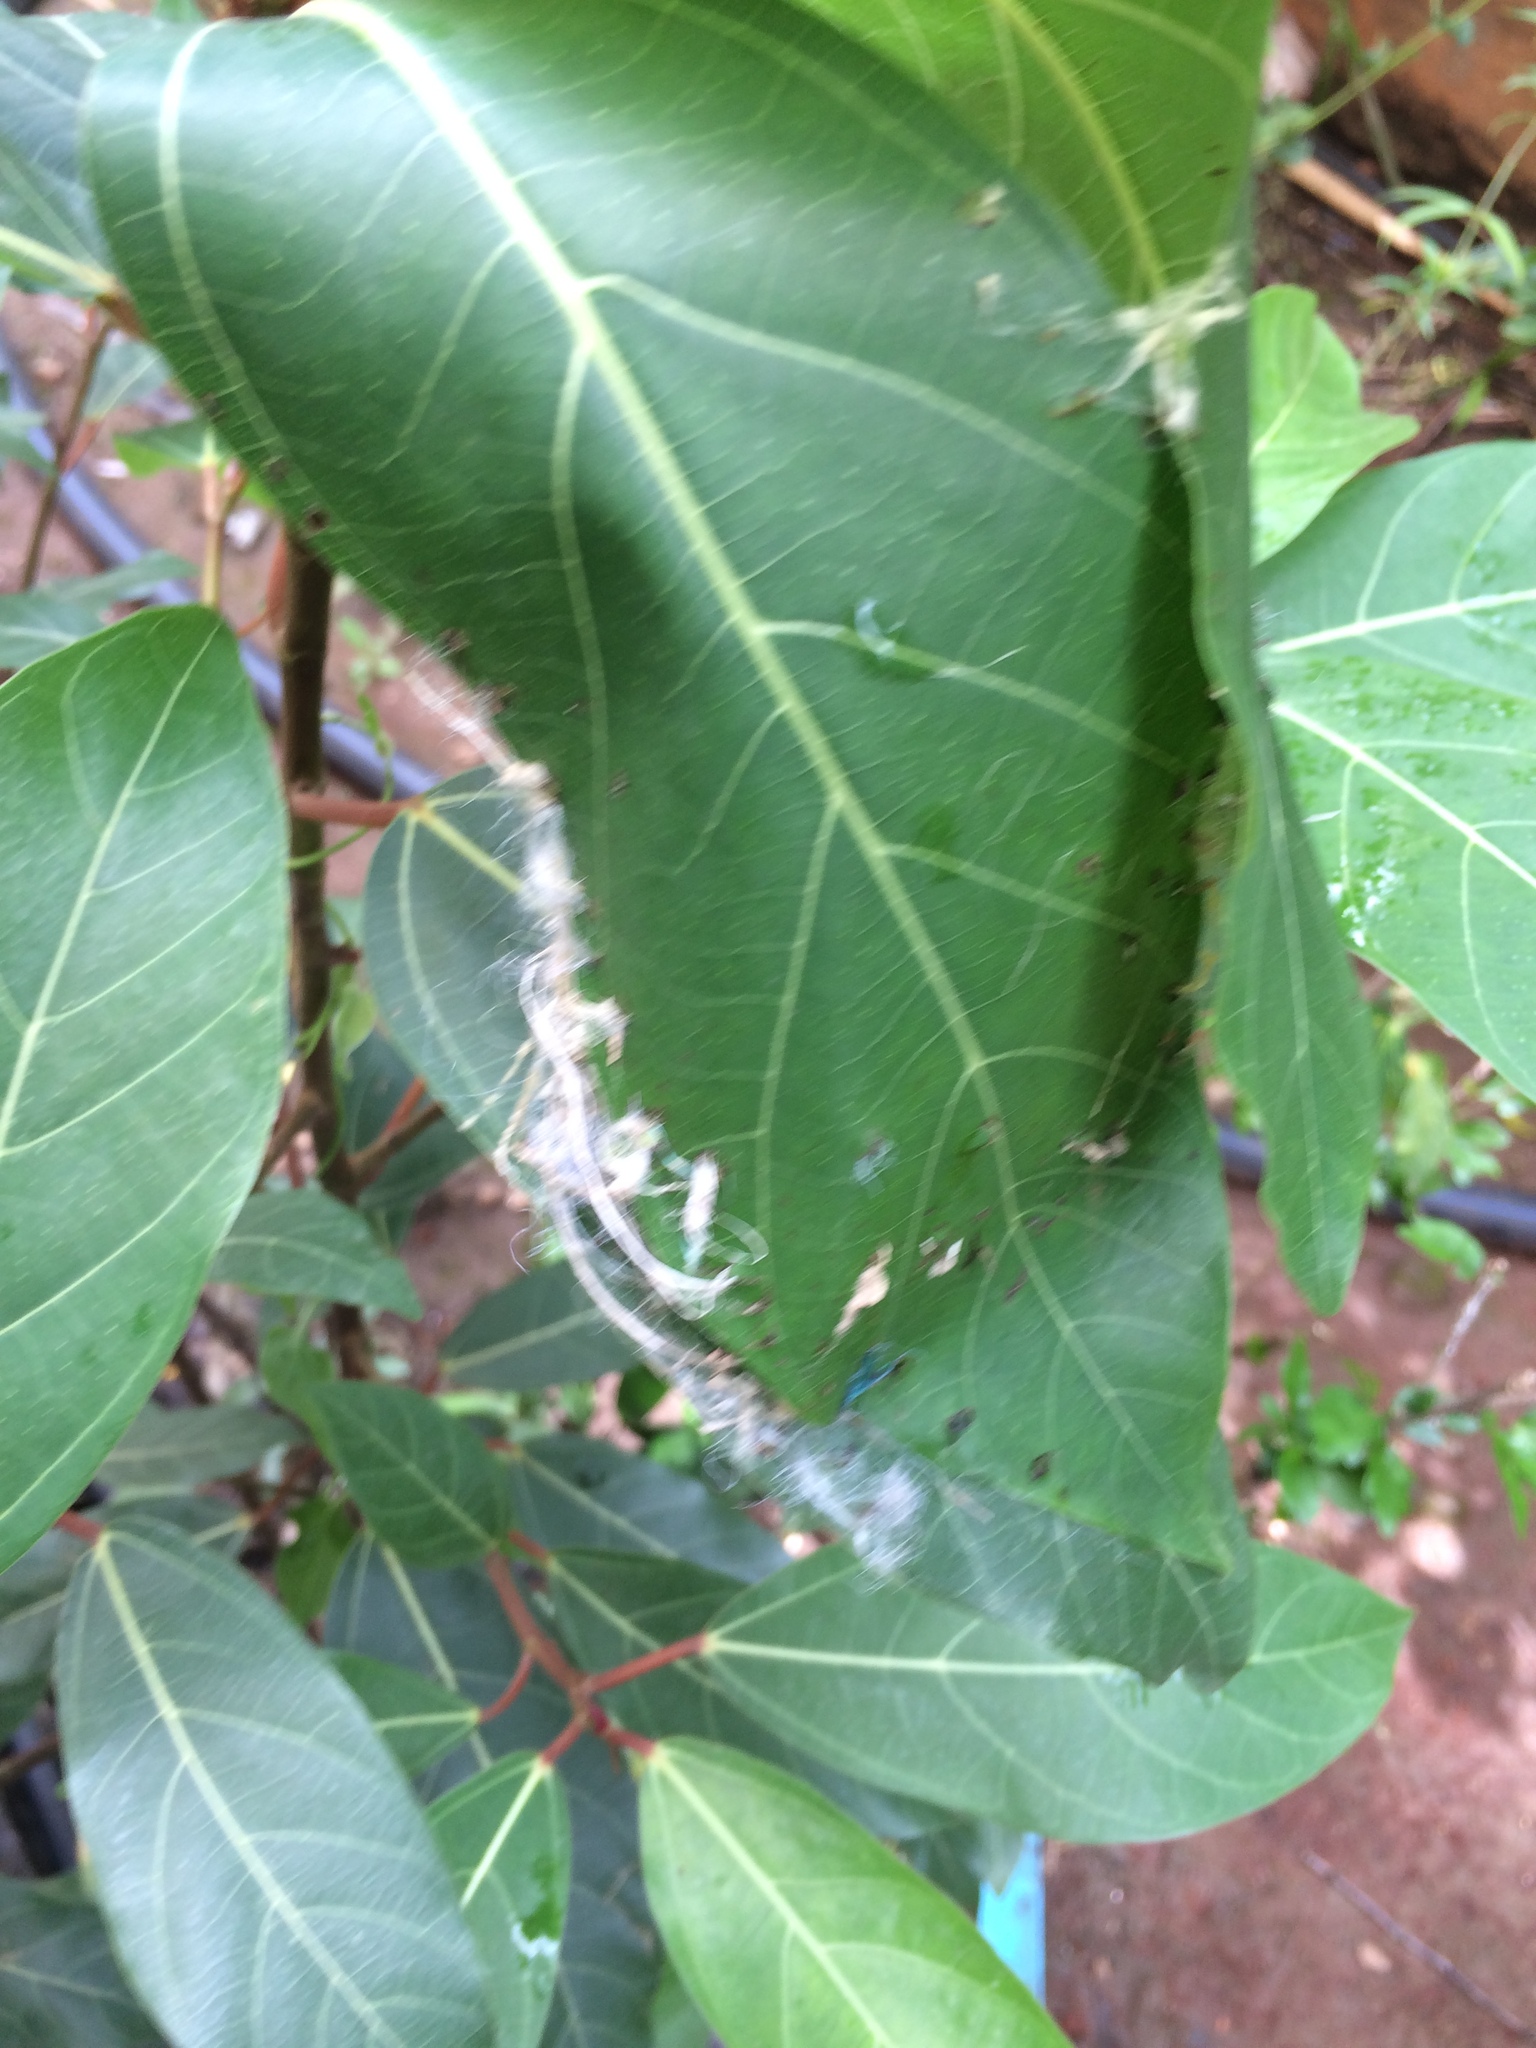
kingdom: Animalia
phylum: Chordata
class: Aves
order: Passeriformes
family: Cisticolidae
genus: Orthotomus
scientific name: Orthotomus sutorius
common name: Common tailorbird
